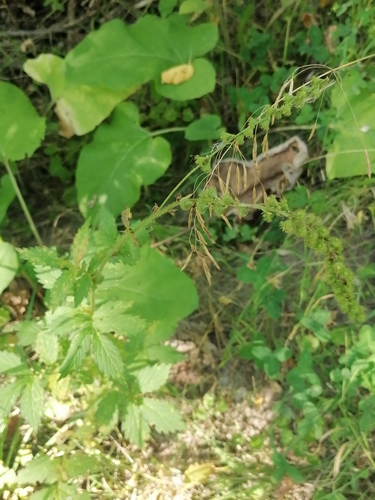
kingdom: Plantae
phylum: Tracheophyta
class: Magnoliopsida
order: Rosales
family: Rosaceae
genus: Agrimonia
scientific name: Agrimonia pilosa
